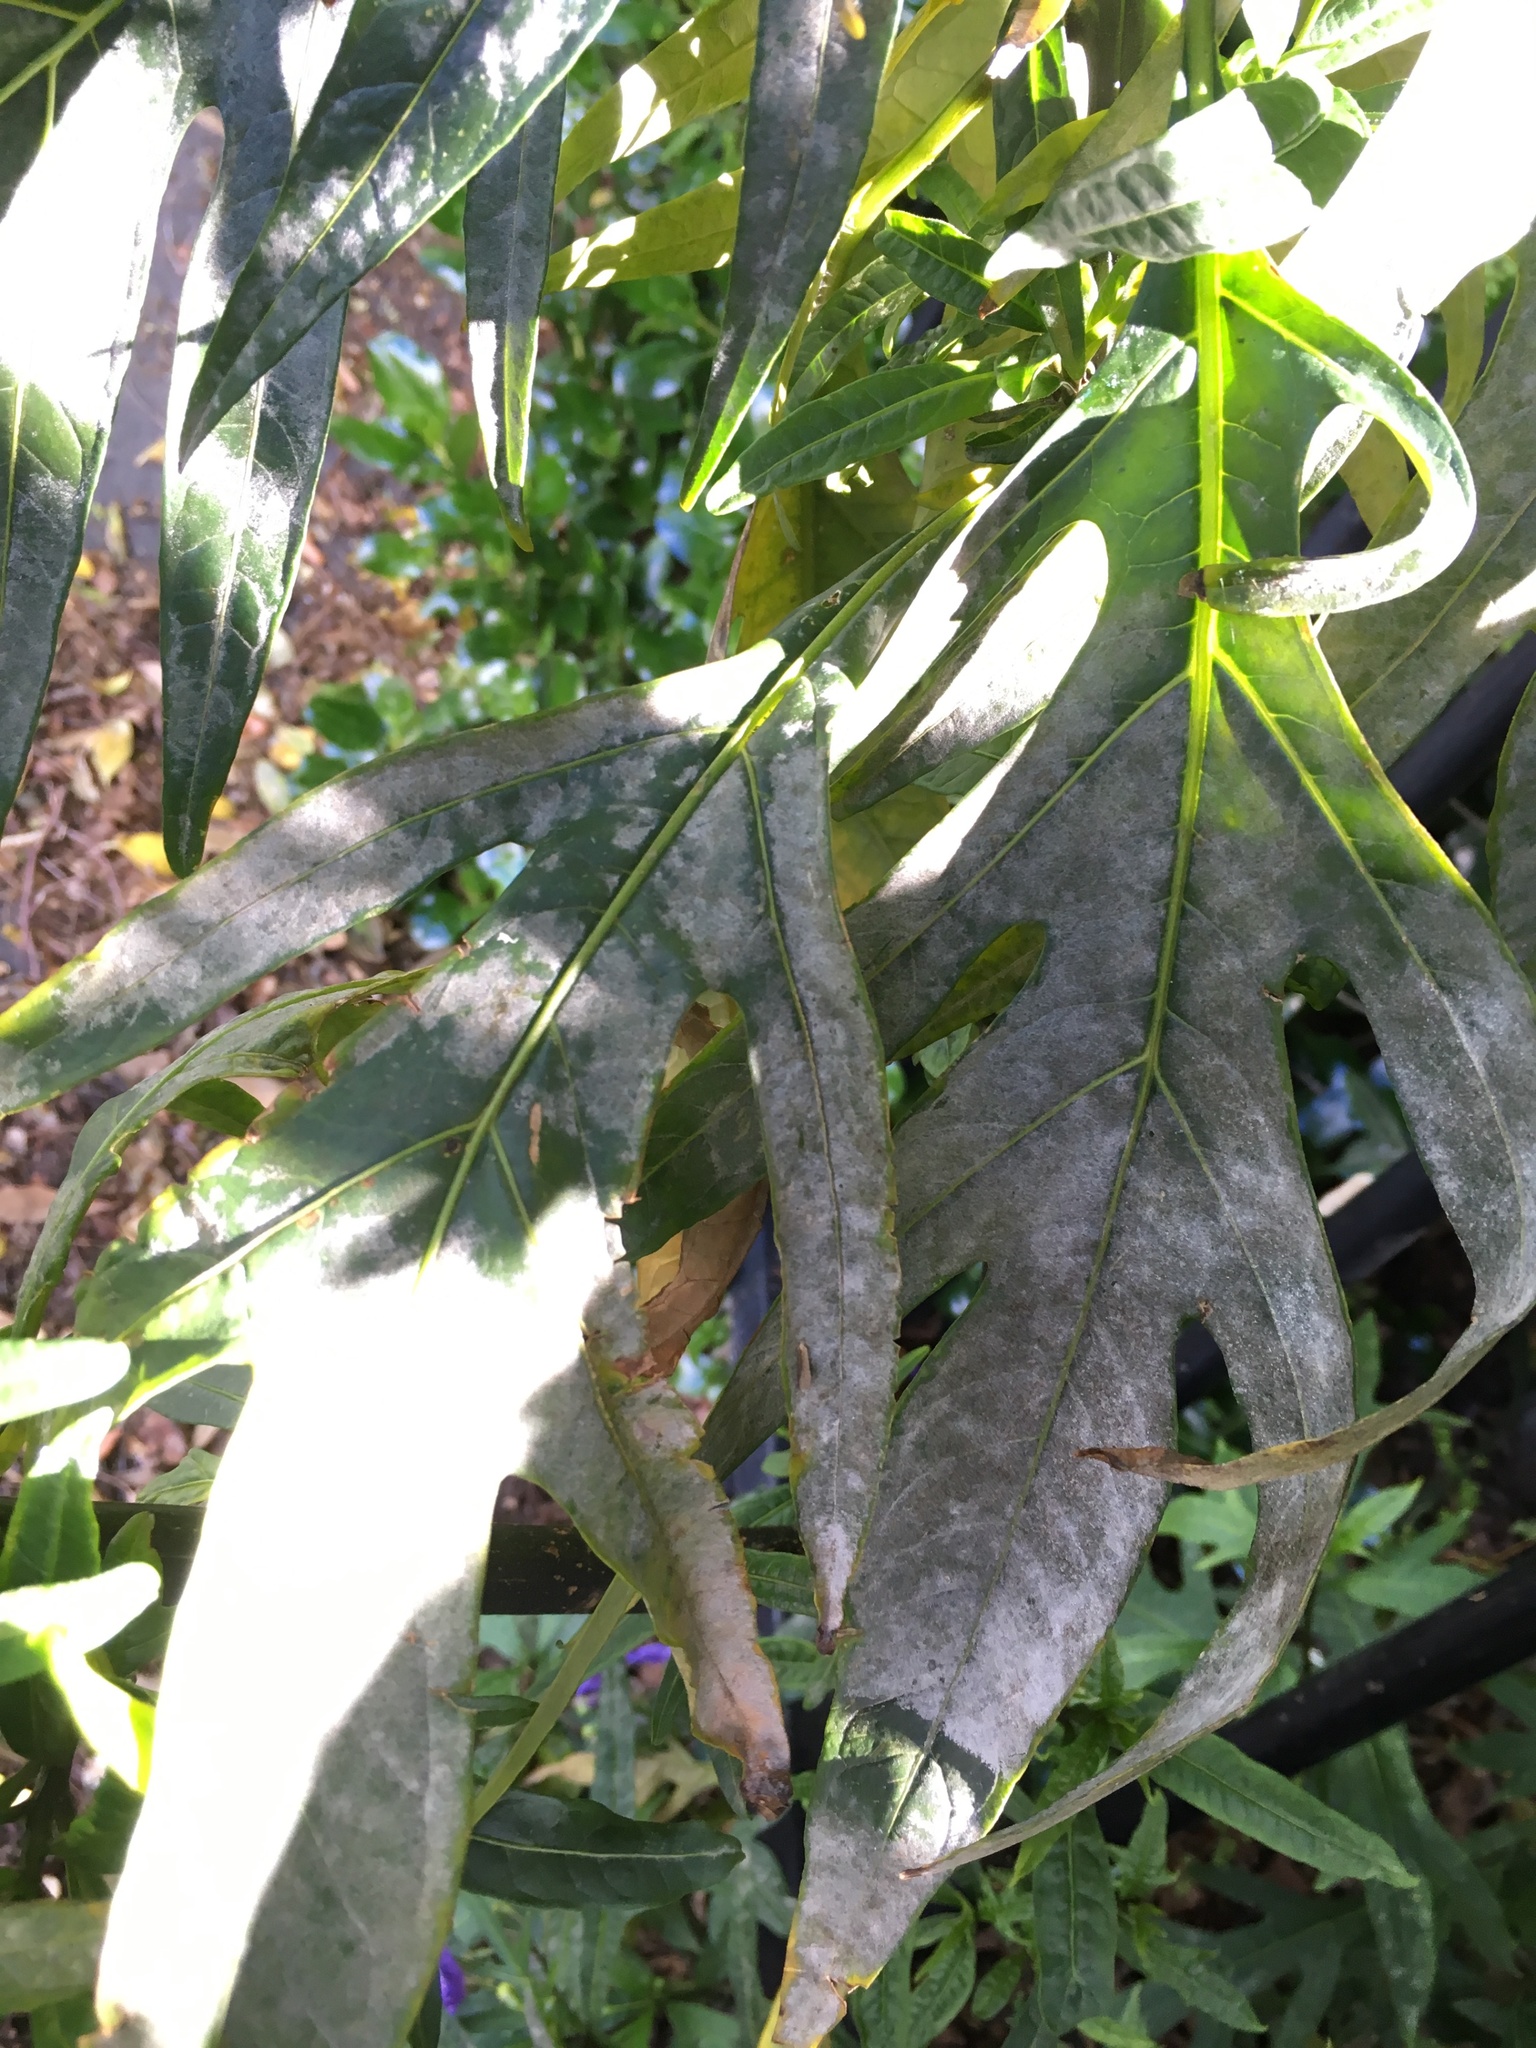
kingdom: Fungi
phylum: Ascomycota
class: Leotiomycetes
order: Helotiales
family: Erysiphaceae
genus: Golovinomyces
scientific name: Golovinomyces longipes
